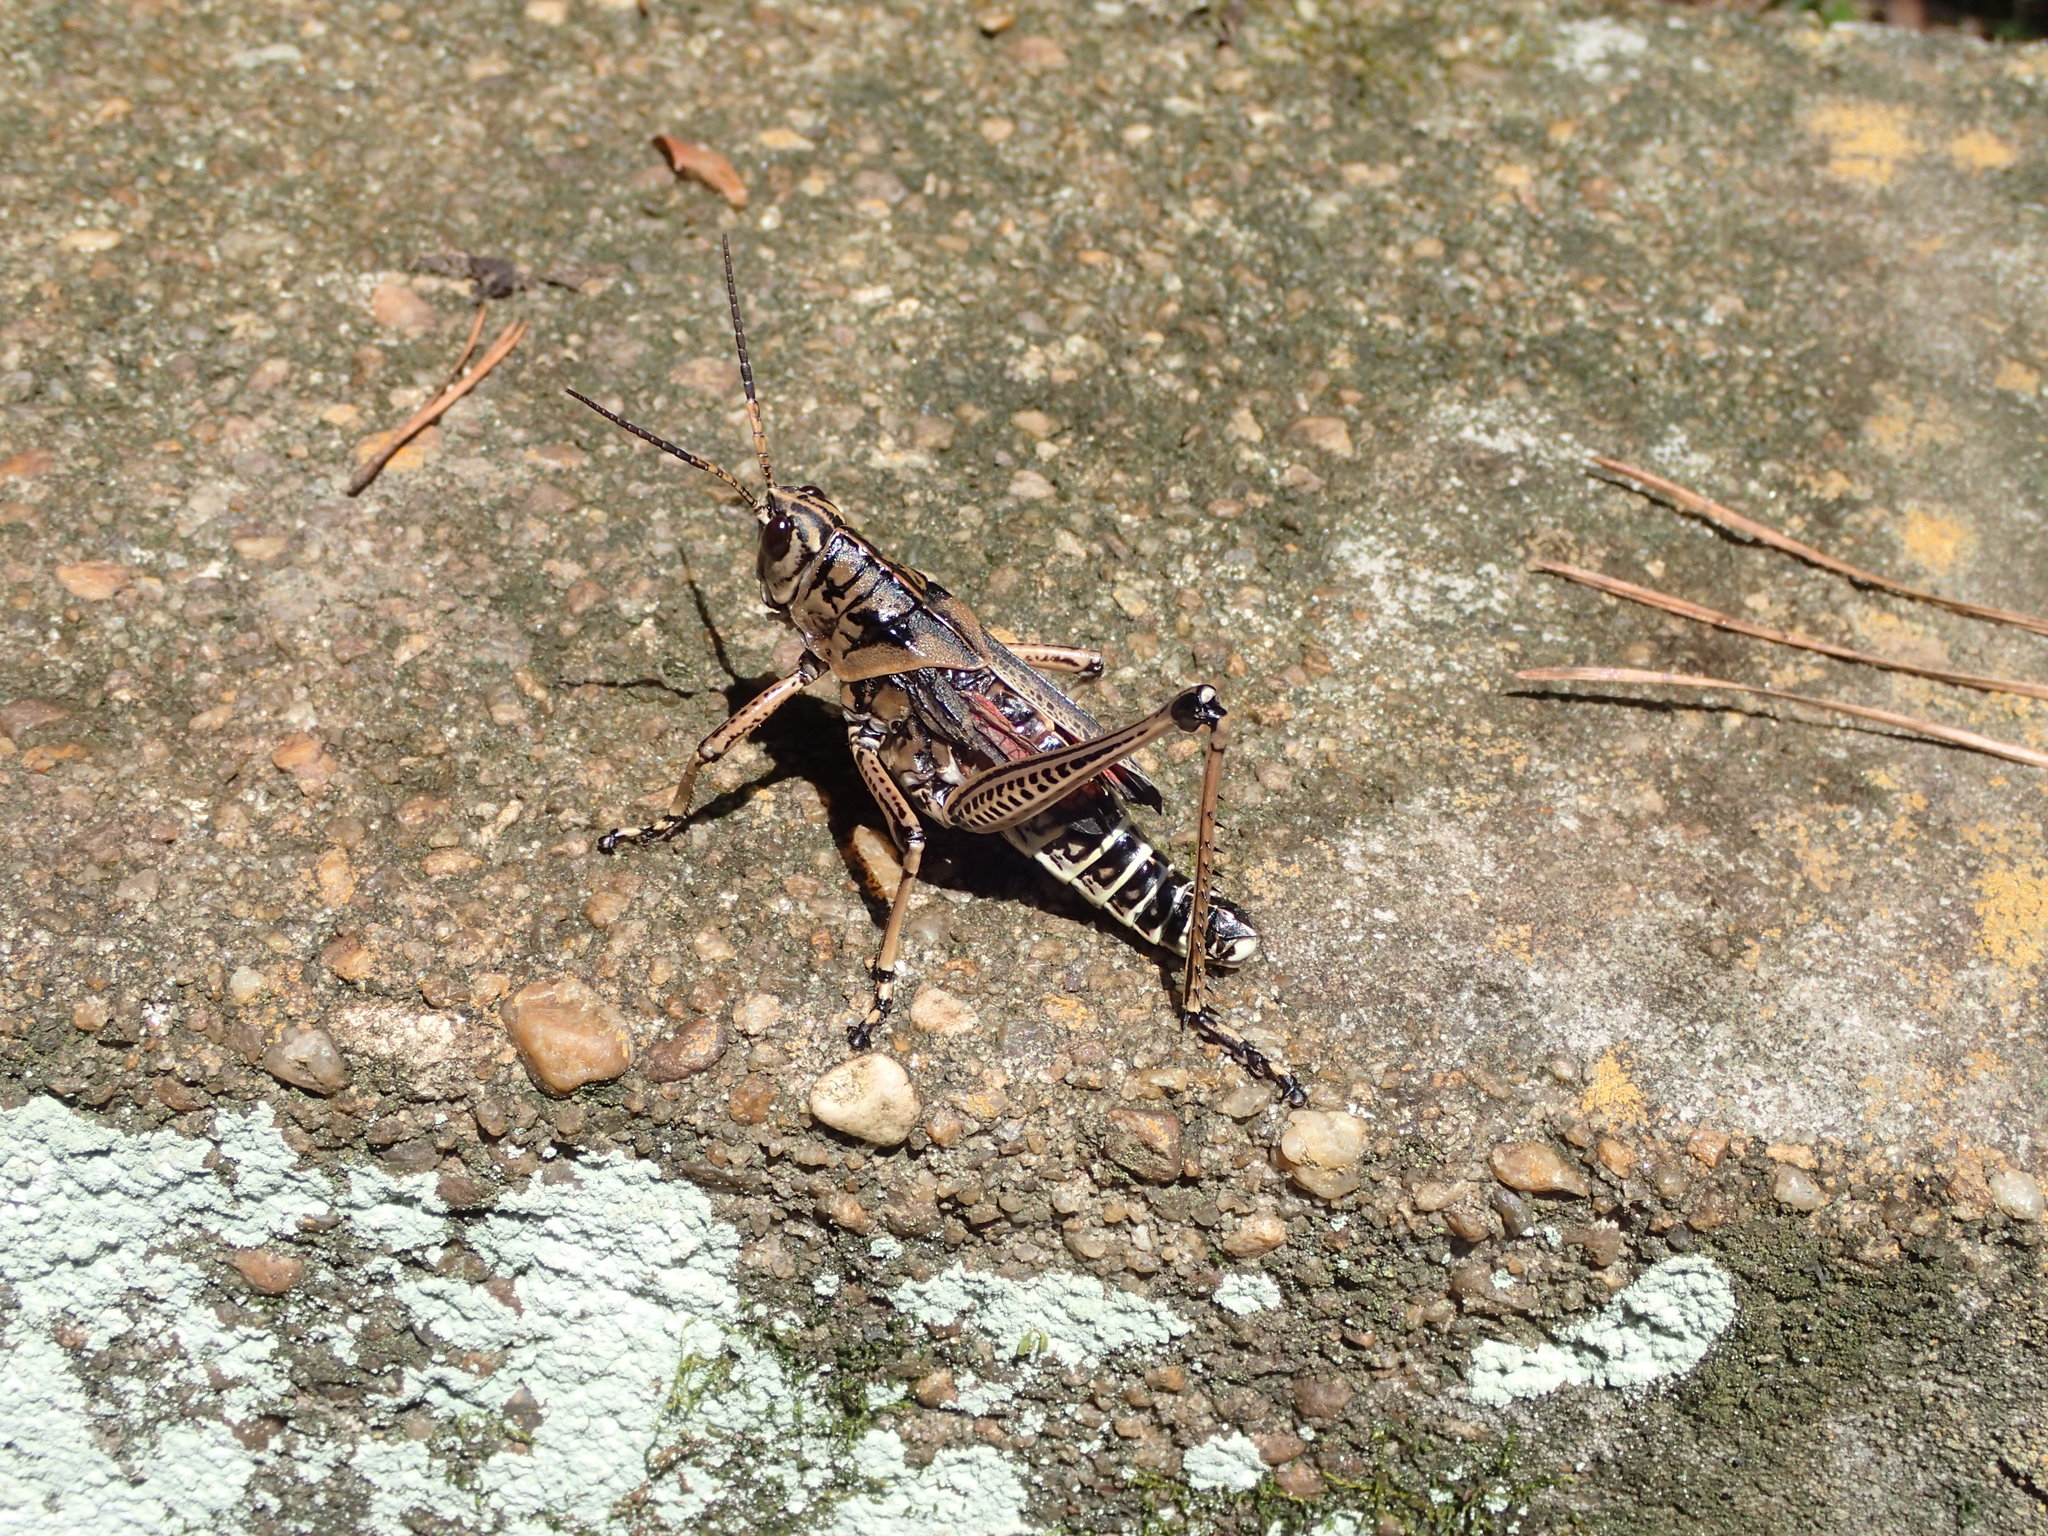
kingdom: Animalia
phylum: Arthropoda
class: Insecta
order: Orthoptera
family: Romaleidae
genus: Romalea
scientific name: Romalea microptera
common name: Eastern lubber grasshopper
